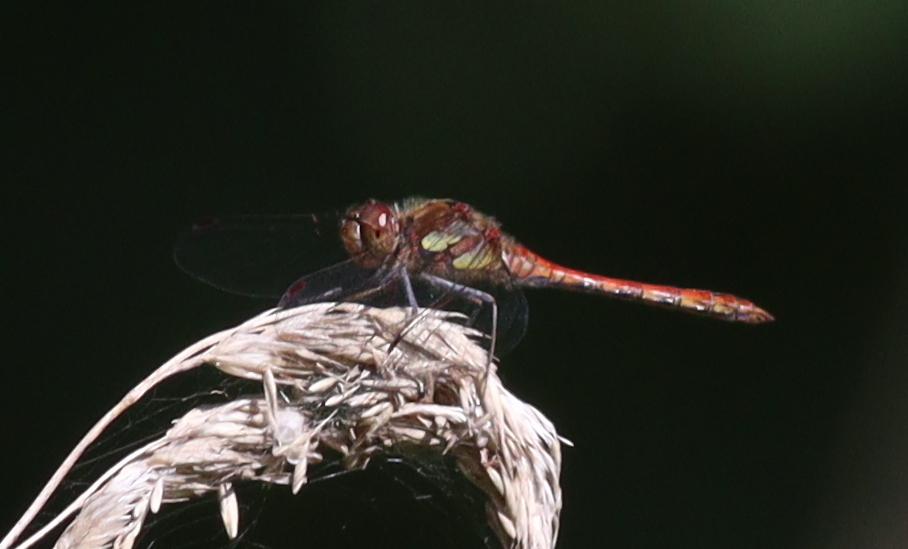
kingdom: Animalia
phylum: Arthropoda
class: Insecta
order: Odonata
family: Libellulidae
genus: Sympetrum
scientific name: Sympetrum striolatum
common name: Common darter
